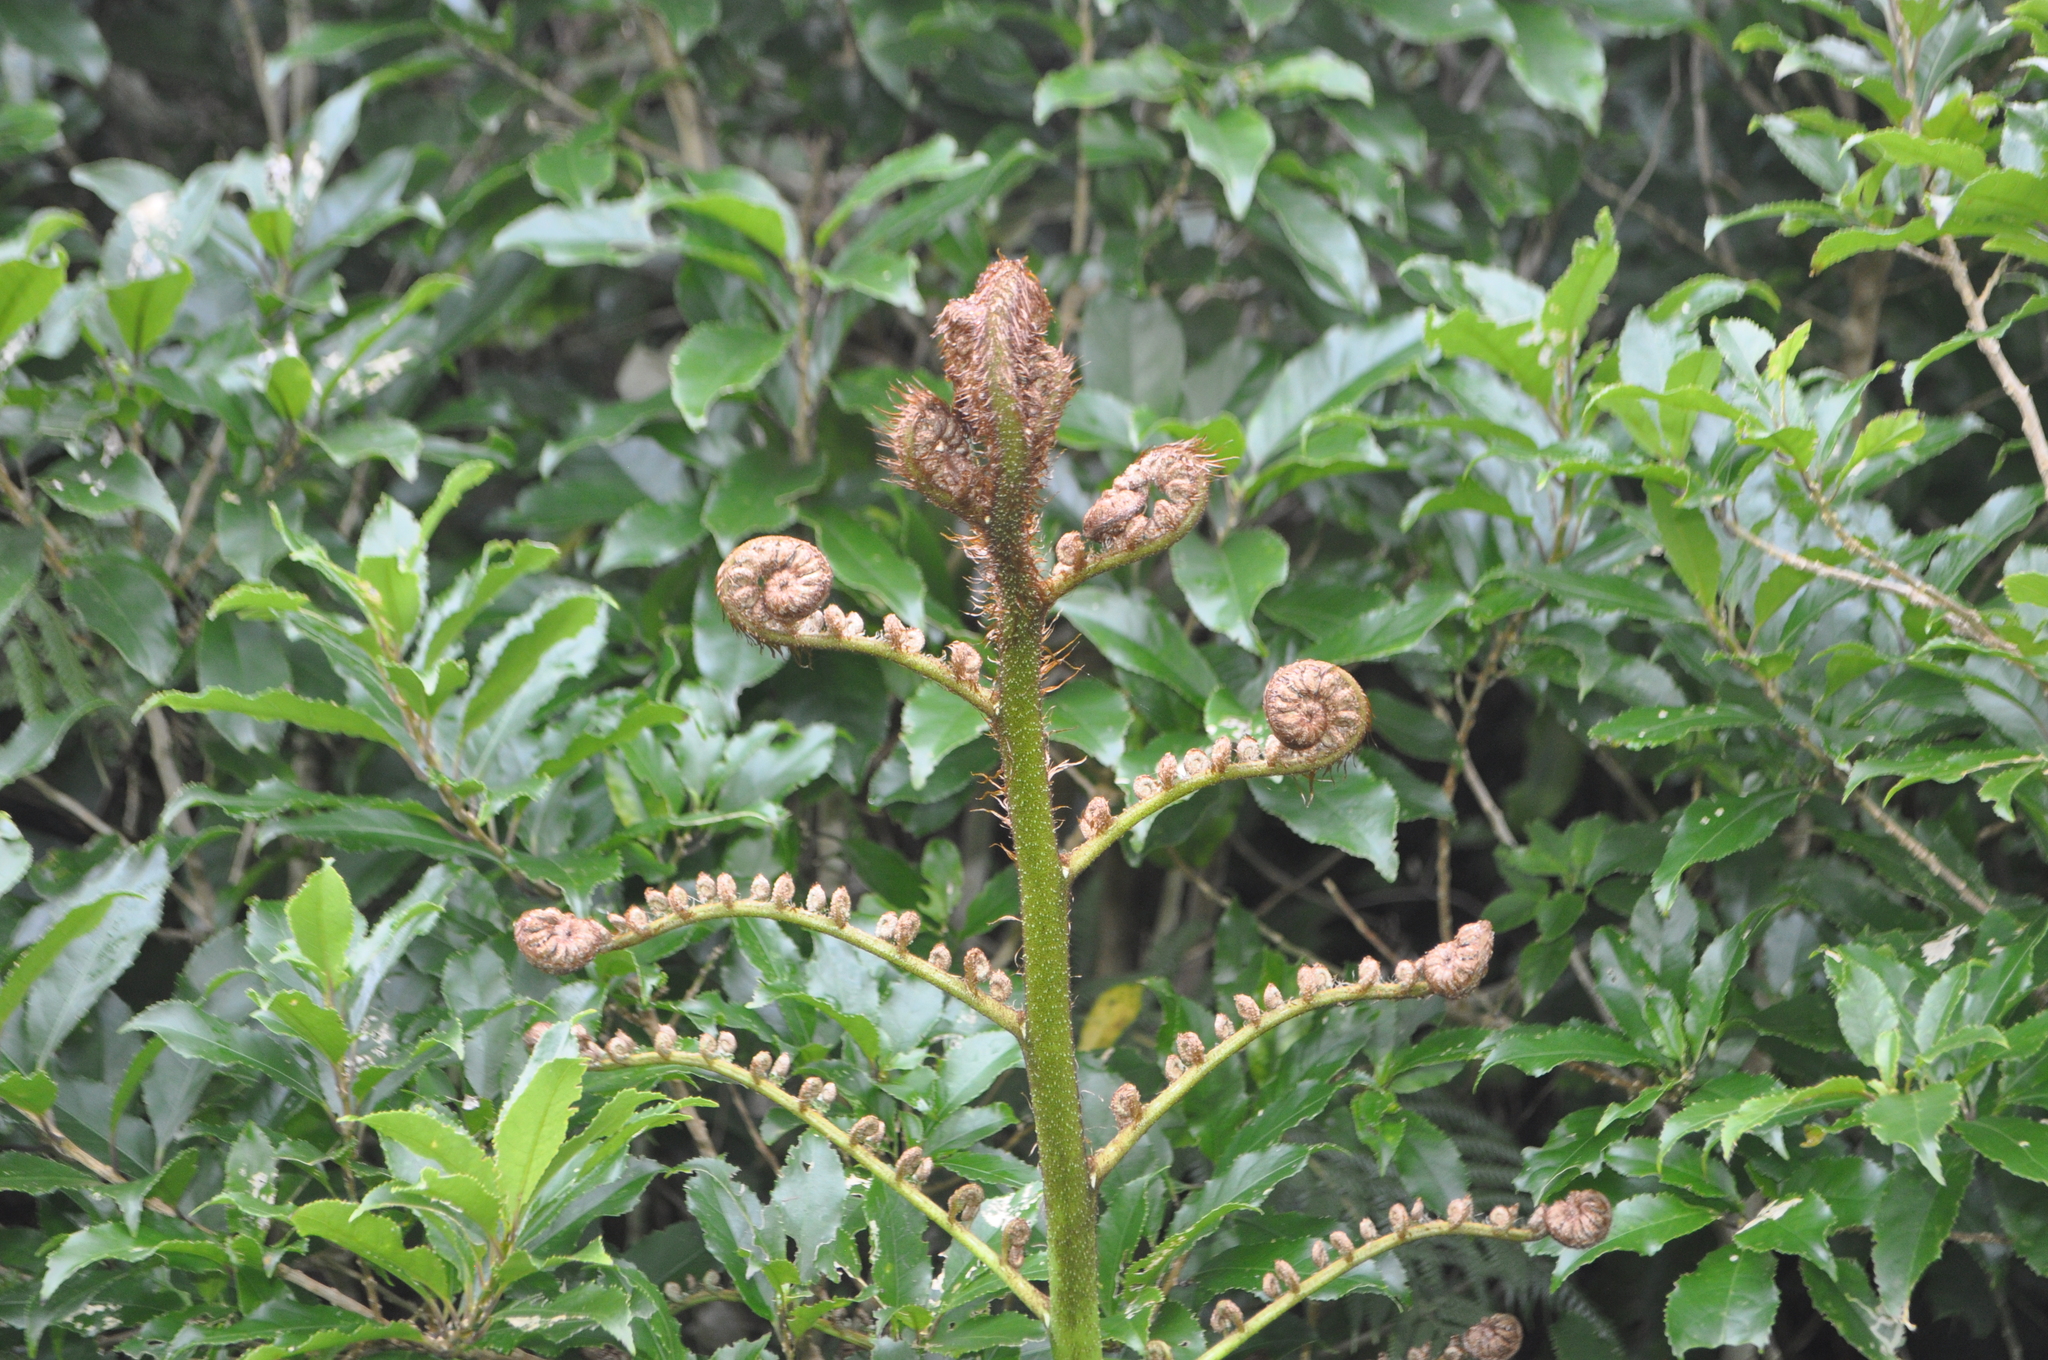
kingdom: Plantae
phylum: Tracheophyta
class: Magnoliopsida
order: Gunnerales
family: Gunneraceae
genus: Gunnera
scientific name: Gunnera tinctoria
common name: Giant-rhubarb
